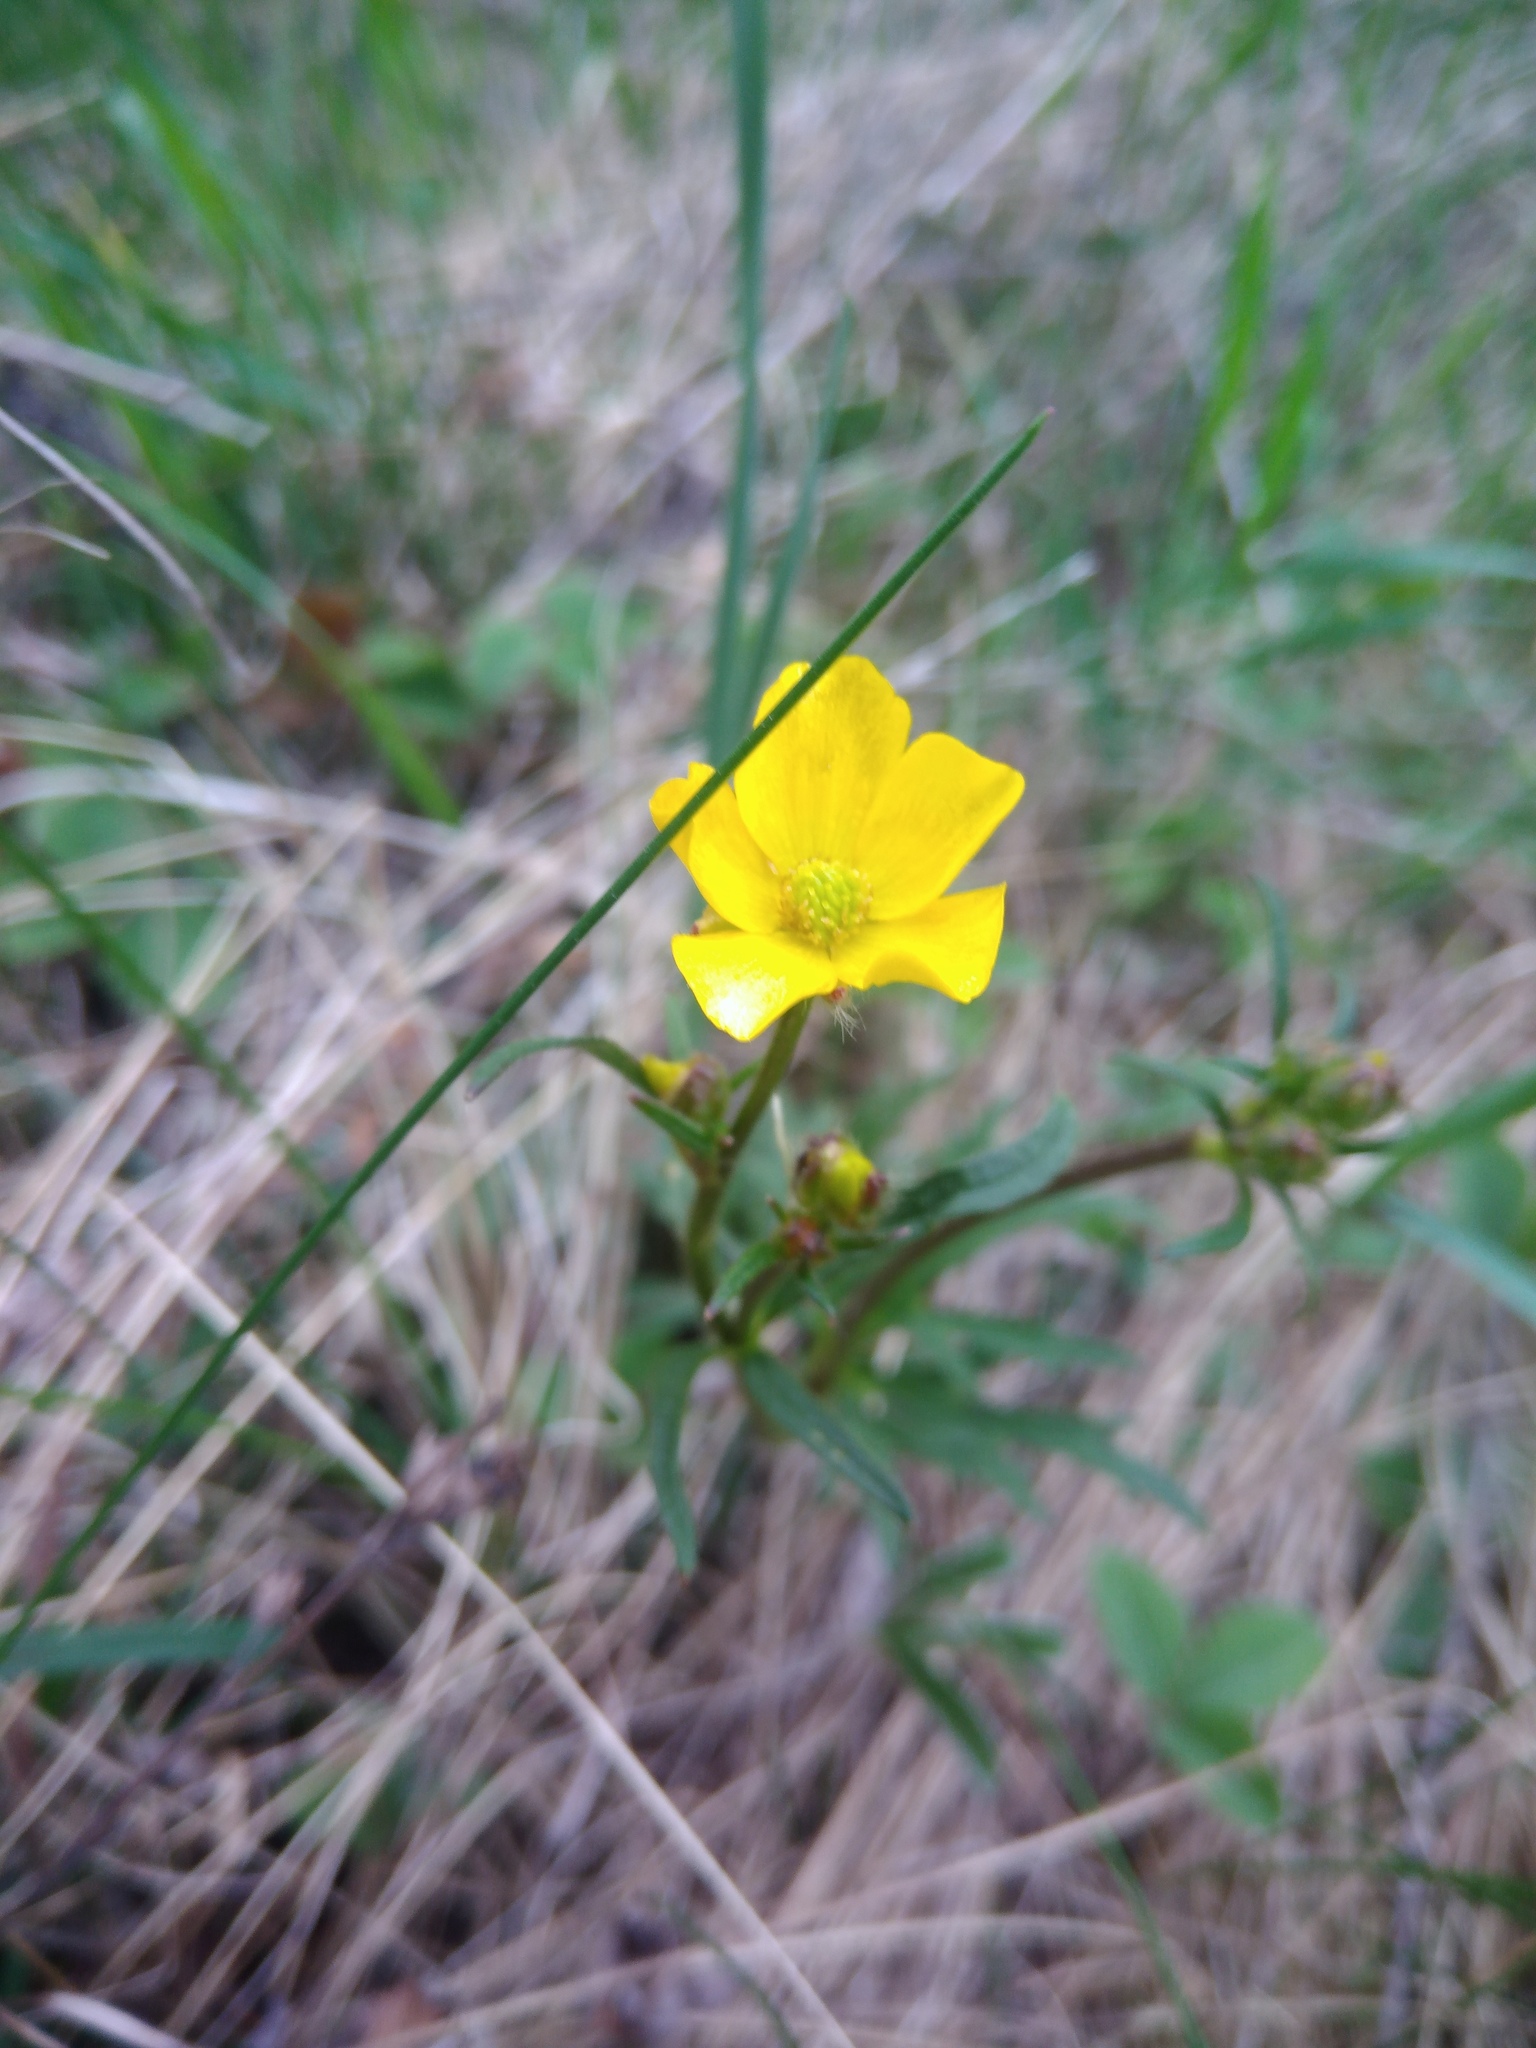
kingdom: Plantae
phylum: Tracheophyta
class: Magnoliopsida
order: Ranunculales
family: Ranunculaceae
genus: Ranunculus
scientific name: Ranunculus auricomus
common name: Goldilocks buttercup
